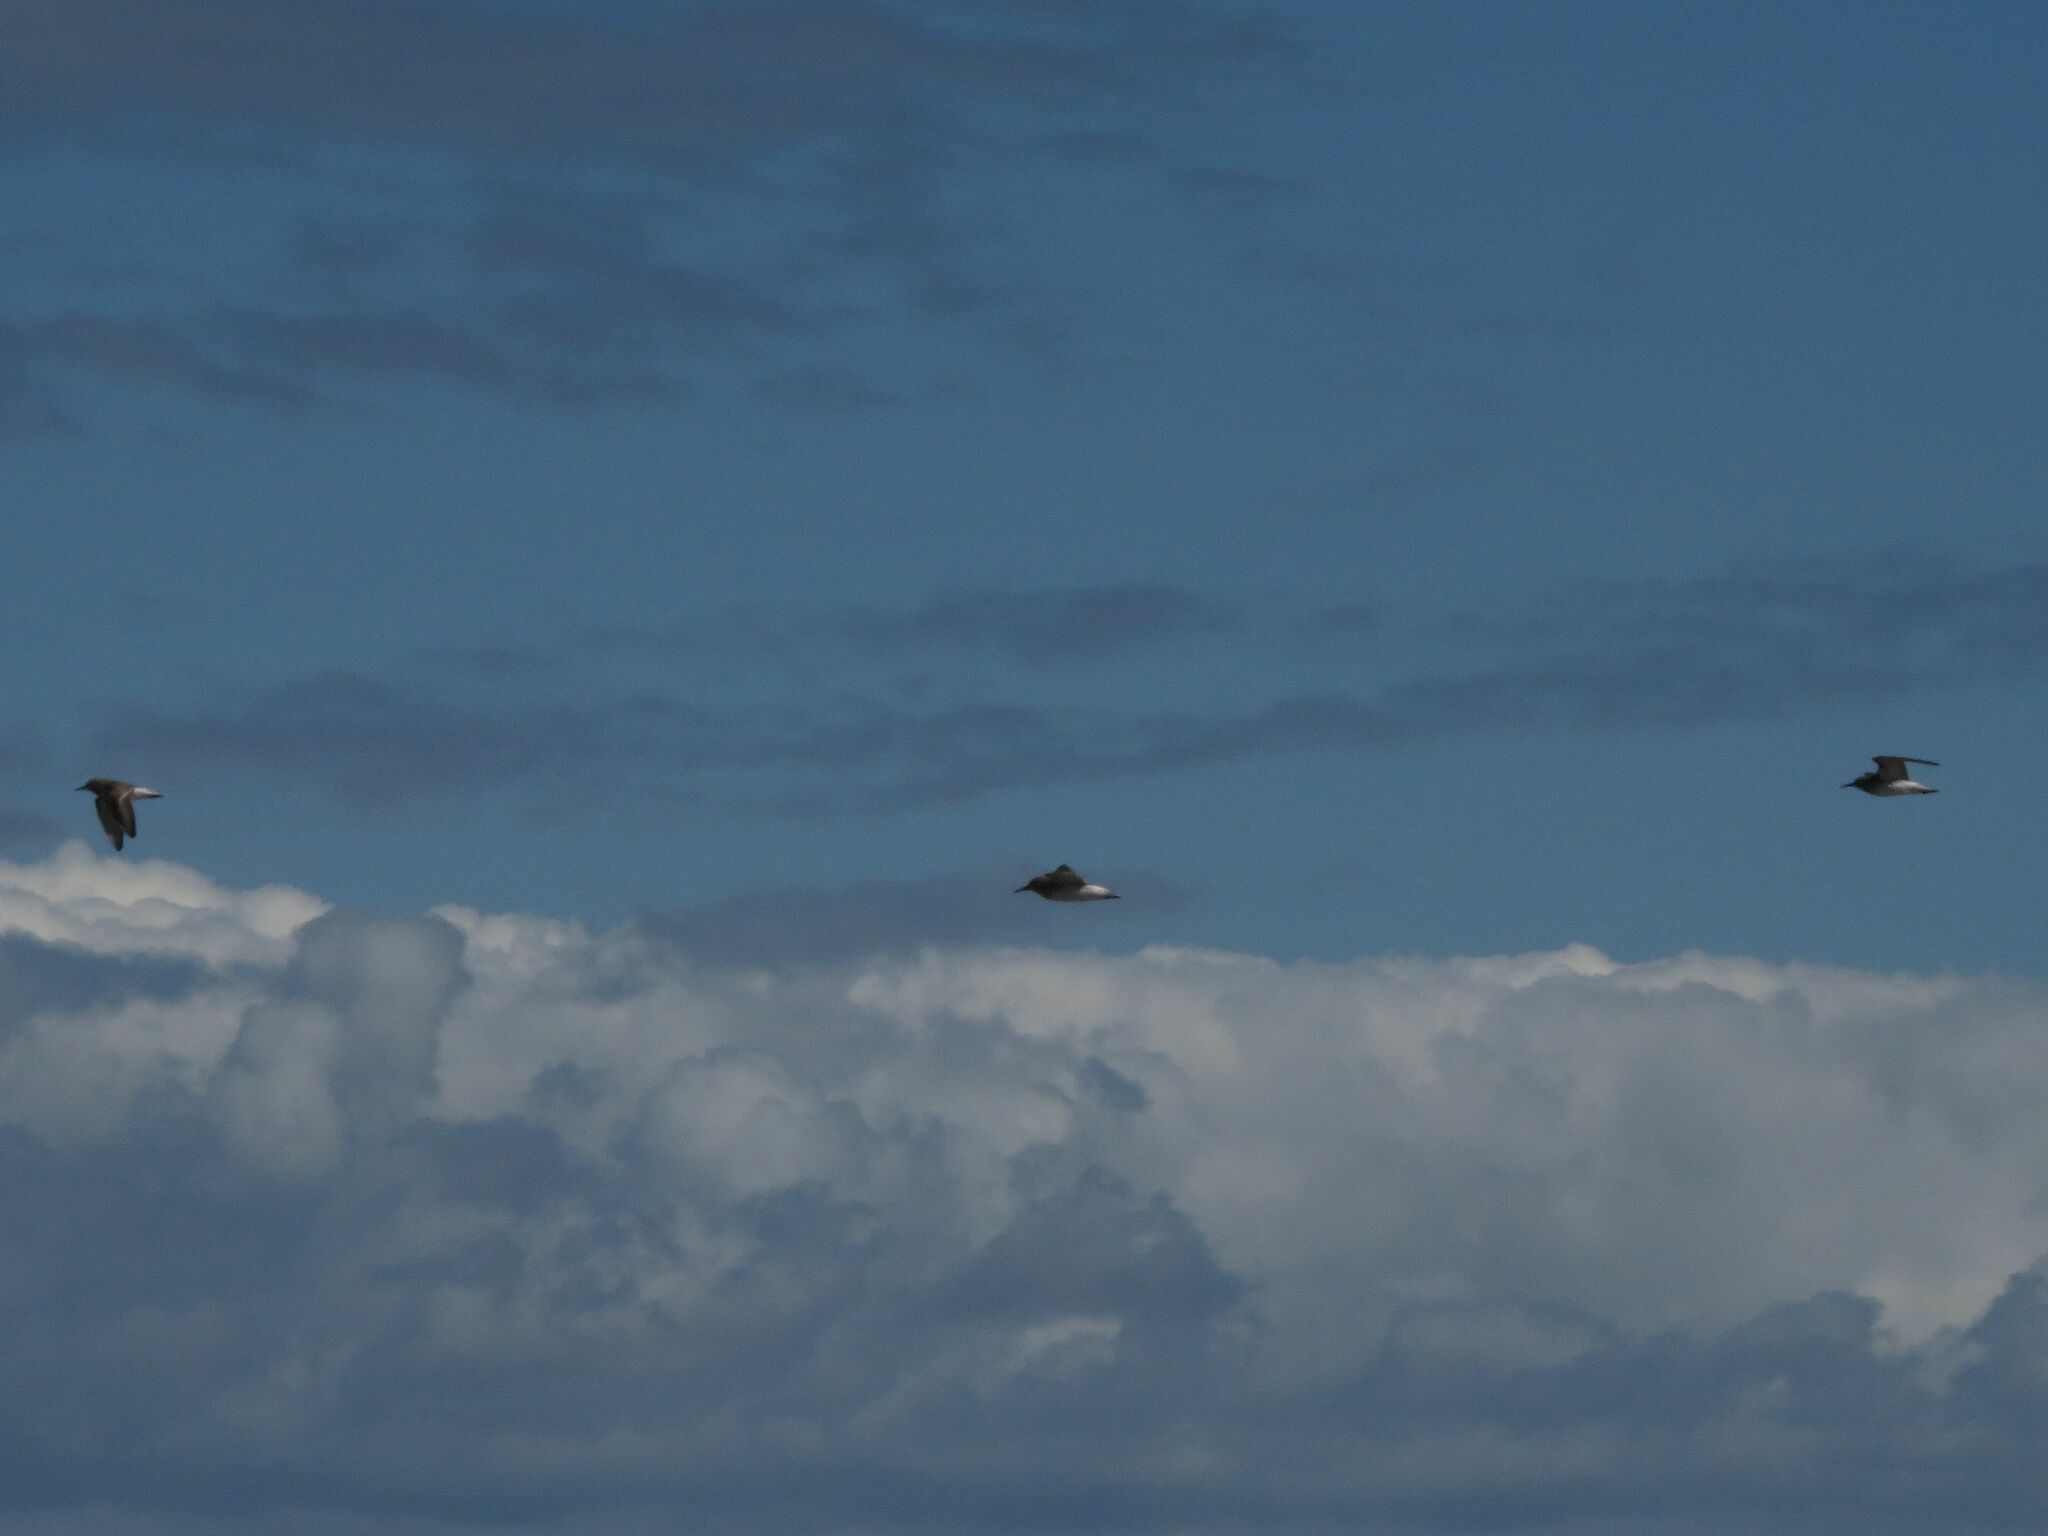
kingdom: Animalia
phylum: Chordata
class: Aves
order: Charadriiformes
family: Scolopacidae
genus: Calidris
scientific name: Calidris fuscicollis
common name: White-rumped sandpiper
